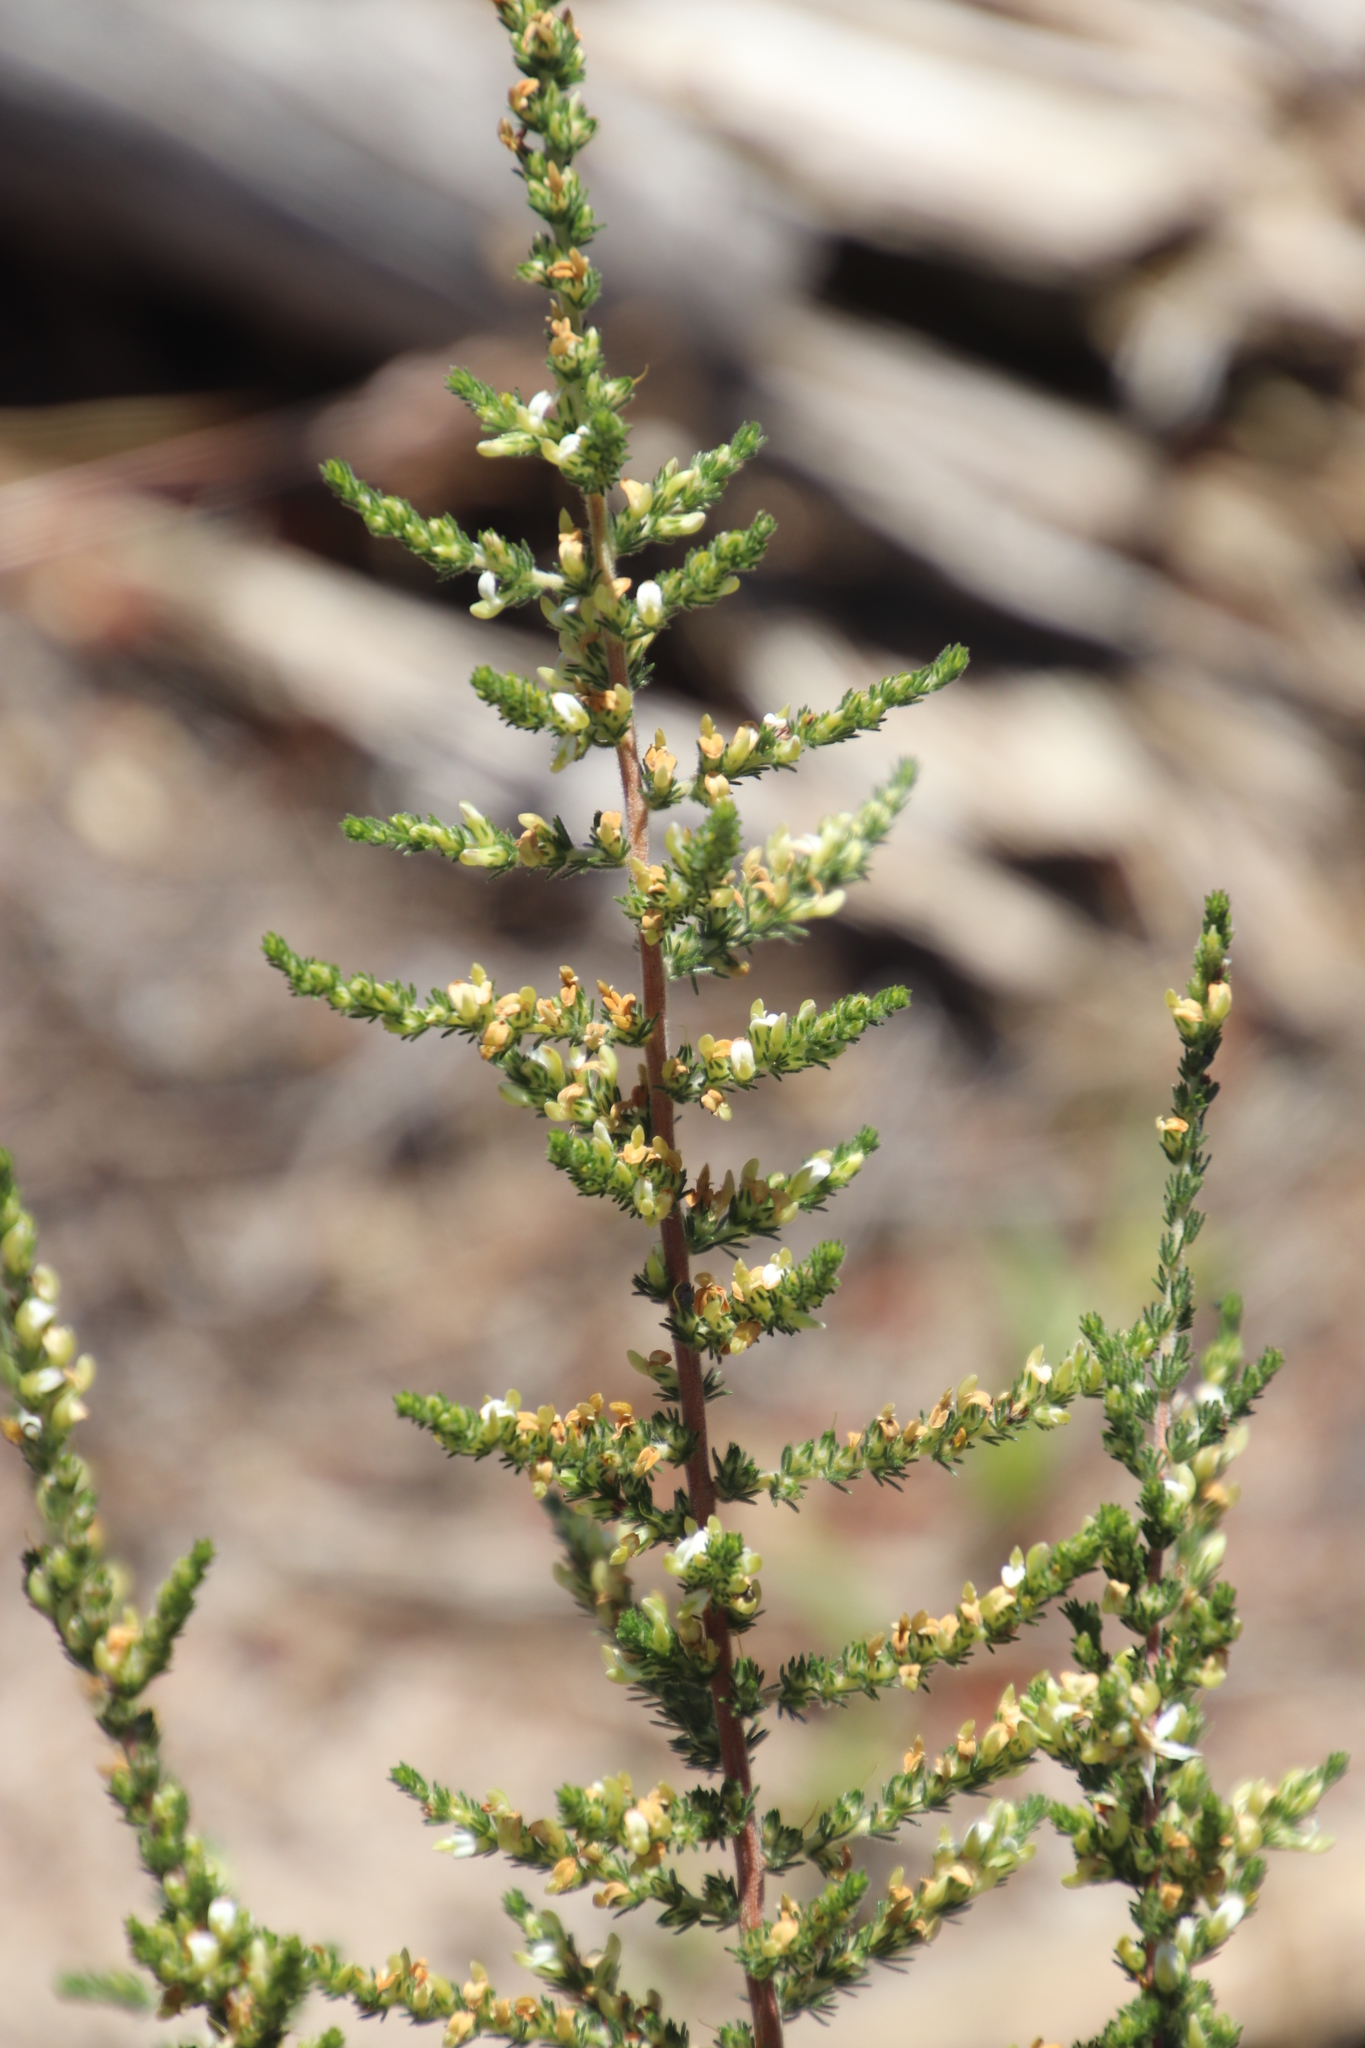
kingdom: Plantae
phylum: Tracheophyta
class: Magnoliopsida
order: Fabales
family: Fabaceae
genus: Aspalathus
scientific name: Aspalathus hispida
